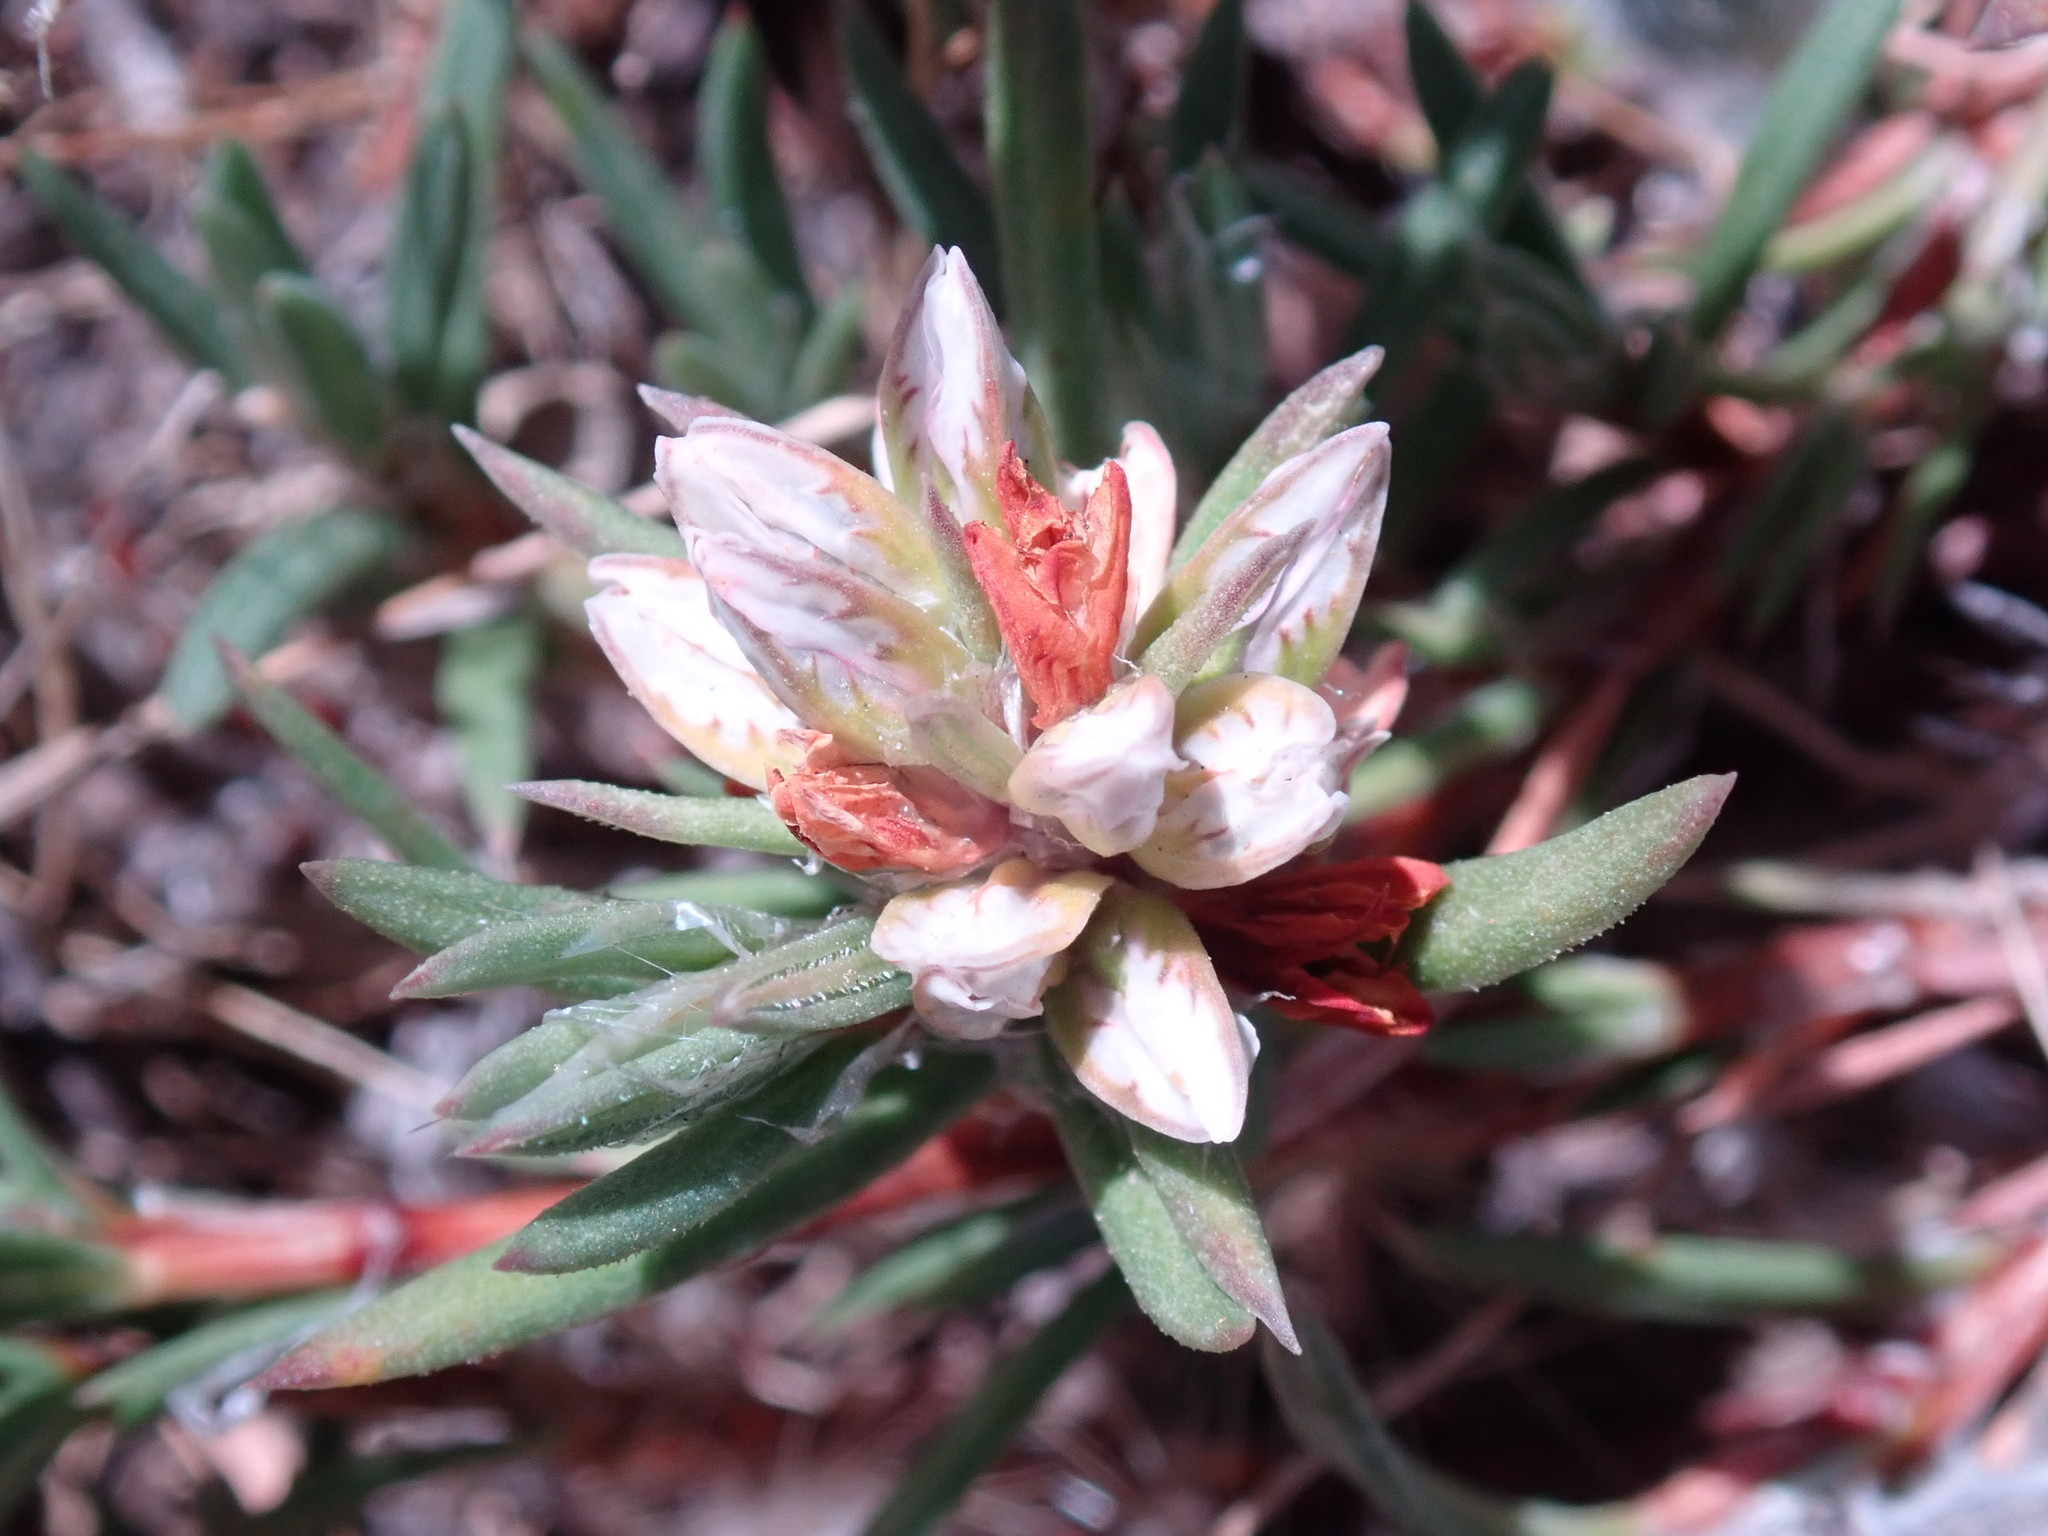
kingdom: Plantae
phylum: Tracheophyta
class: Magnoliopsida
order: Caryophyllales
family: Polygonaceae
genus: Polygonum
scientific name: Polygonum paronychia
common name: Dune knotweed
